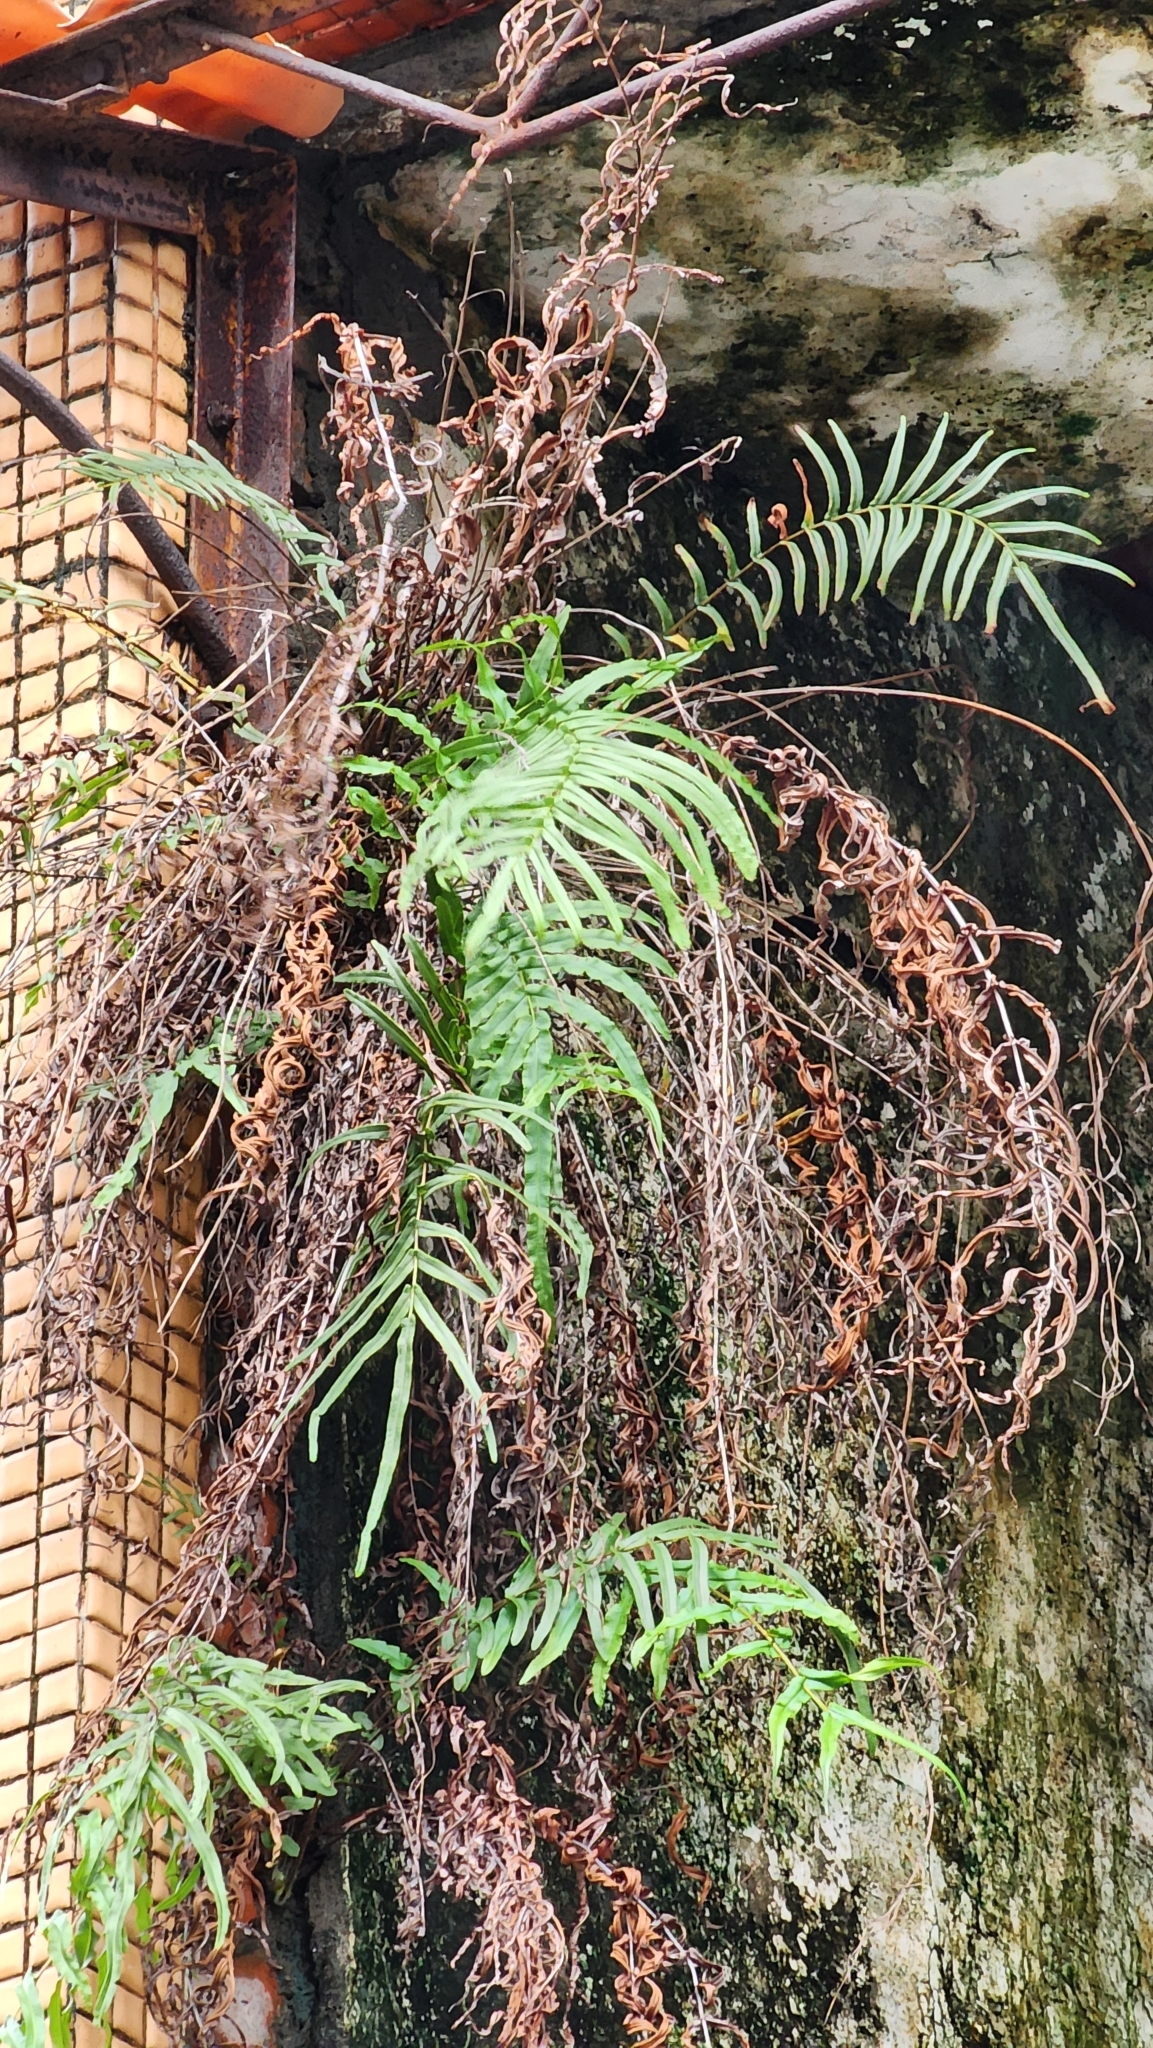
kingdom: Plantae
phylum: Tracheophyta
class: Polypodiopsida
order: Polypodiales
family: Pteridaceae
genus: Pteris
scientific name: Pteris vittata
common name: Ladder brake
